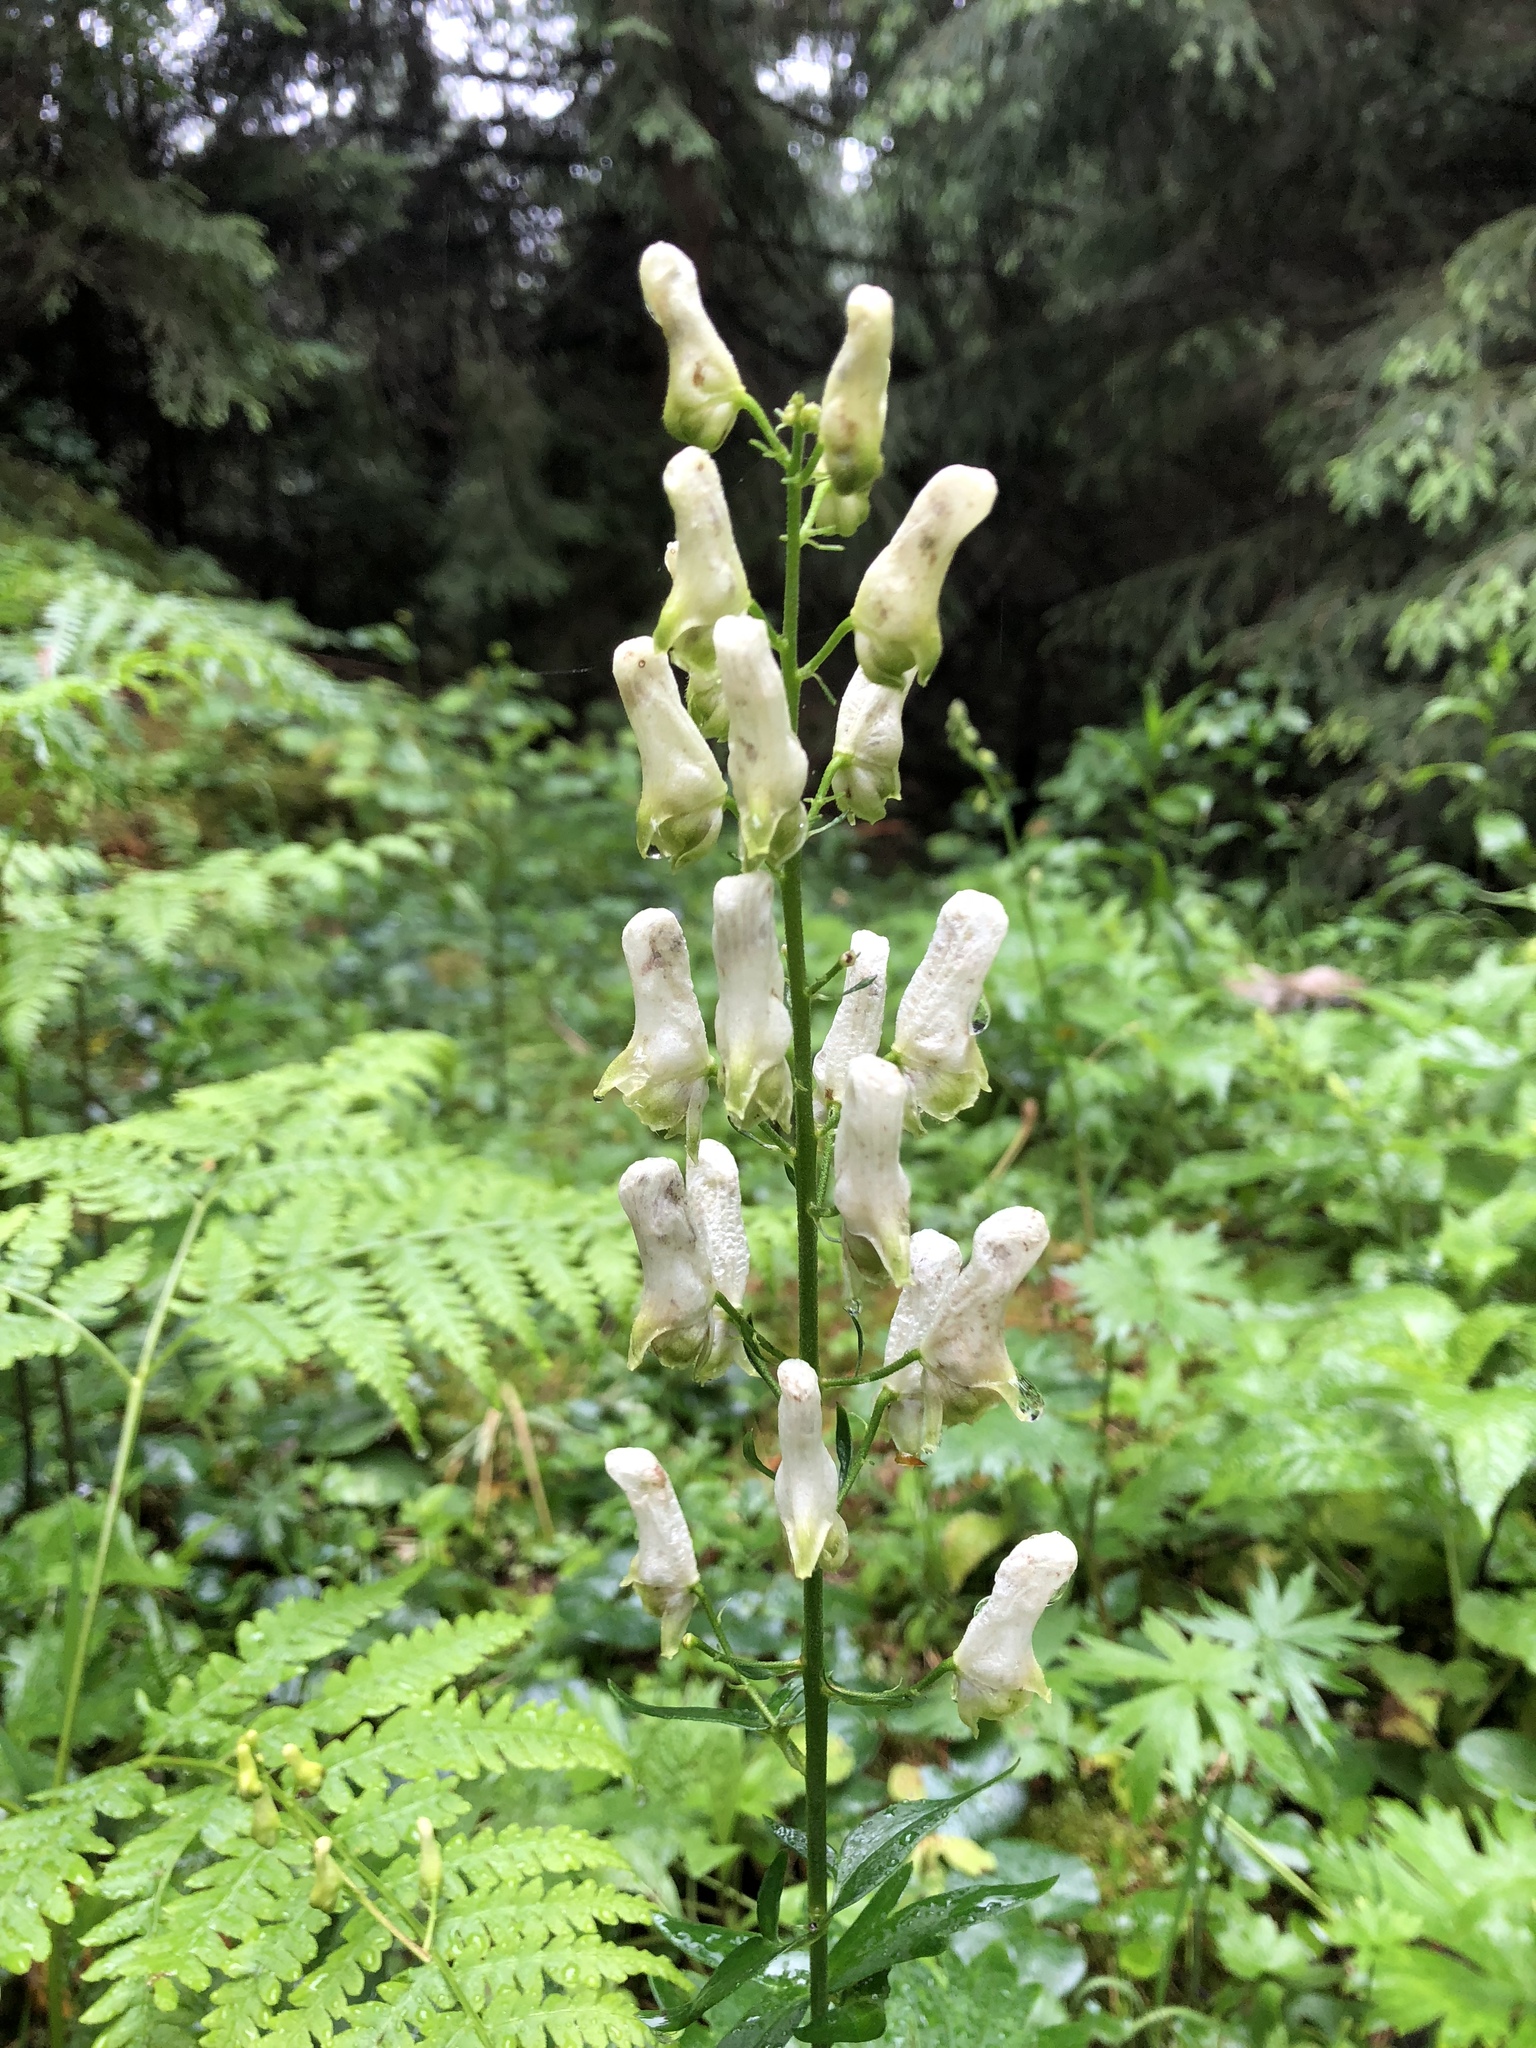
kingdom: Plantae
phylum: Tracheophyta
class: Magnoliopsida
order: Ranunculales
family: Ranunculaceae
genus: Aconitum
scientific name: Aconitum lasiostomum
